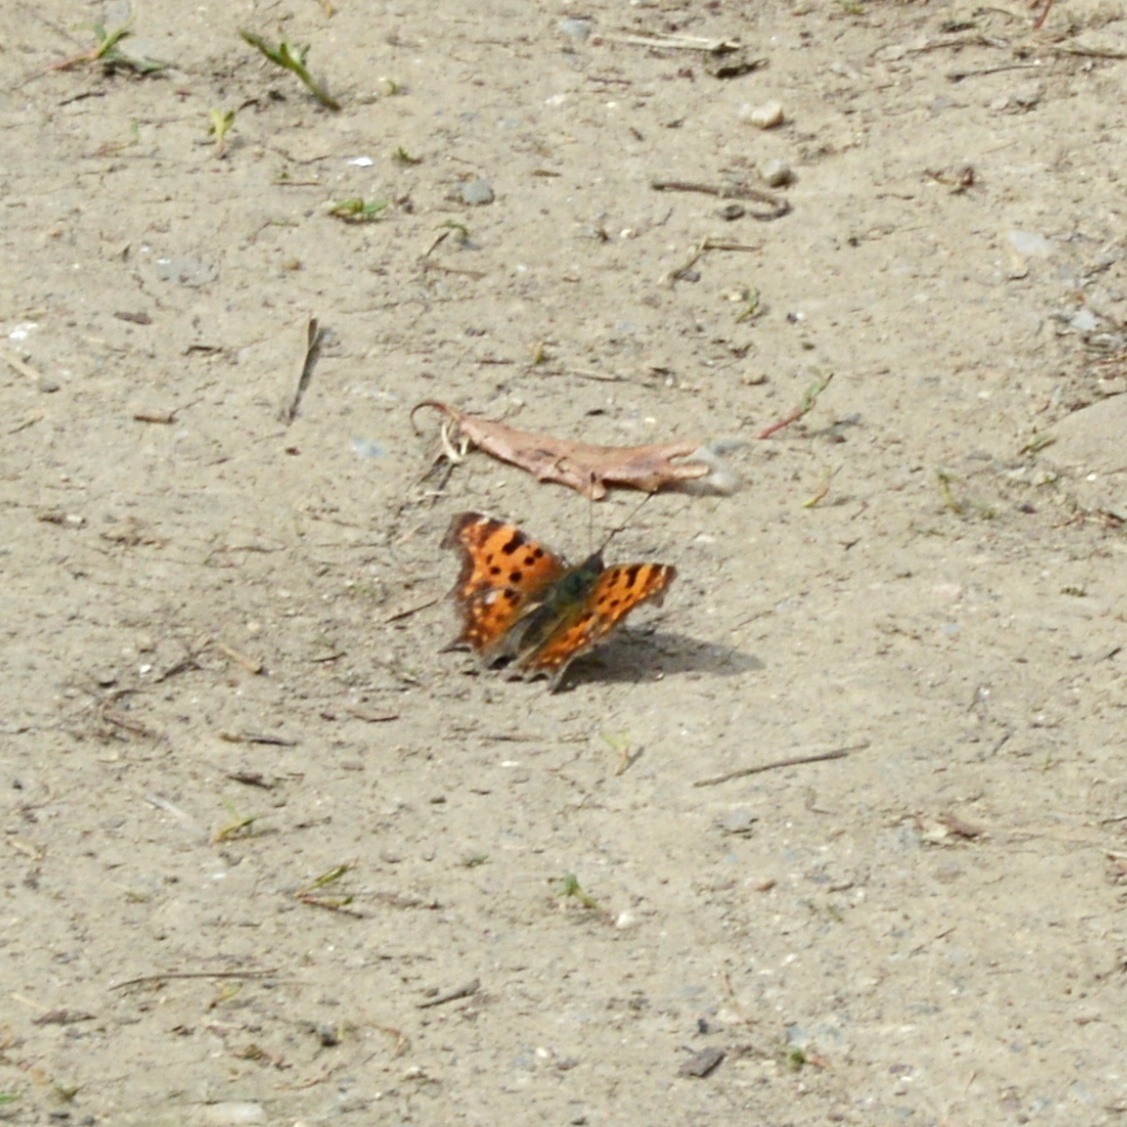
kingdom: Animalia
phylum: Arthropoda
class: Insecta
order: Lepidoptera
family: Nymphalidae
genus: Polygonia
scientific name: Polygonia c-album
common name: Comma
